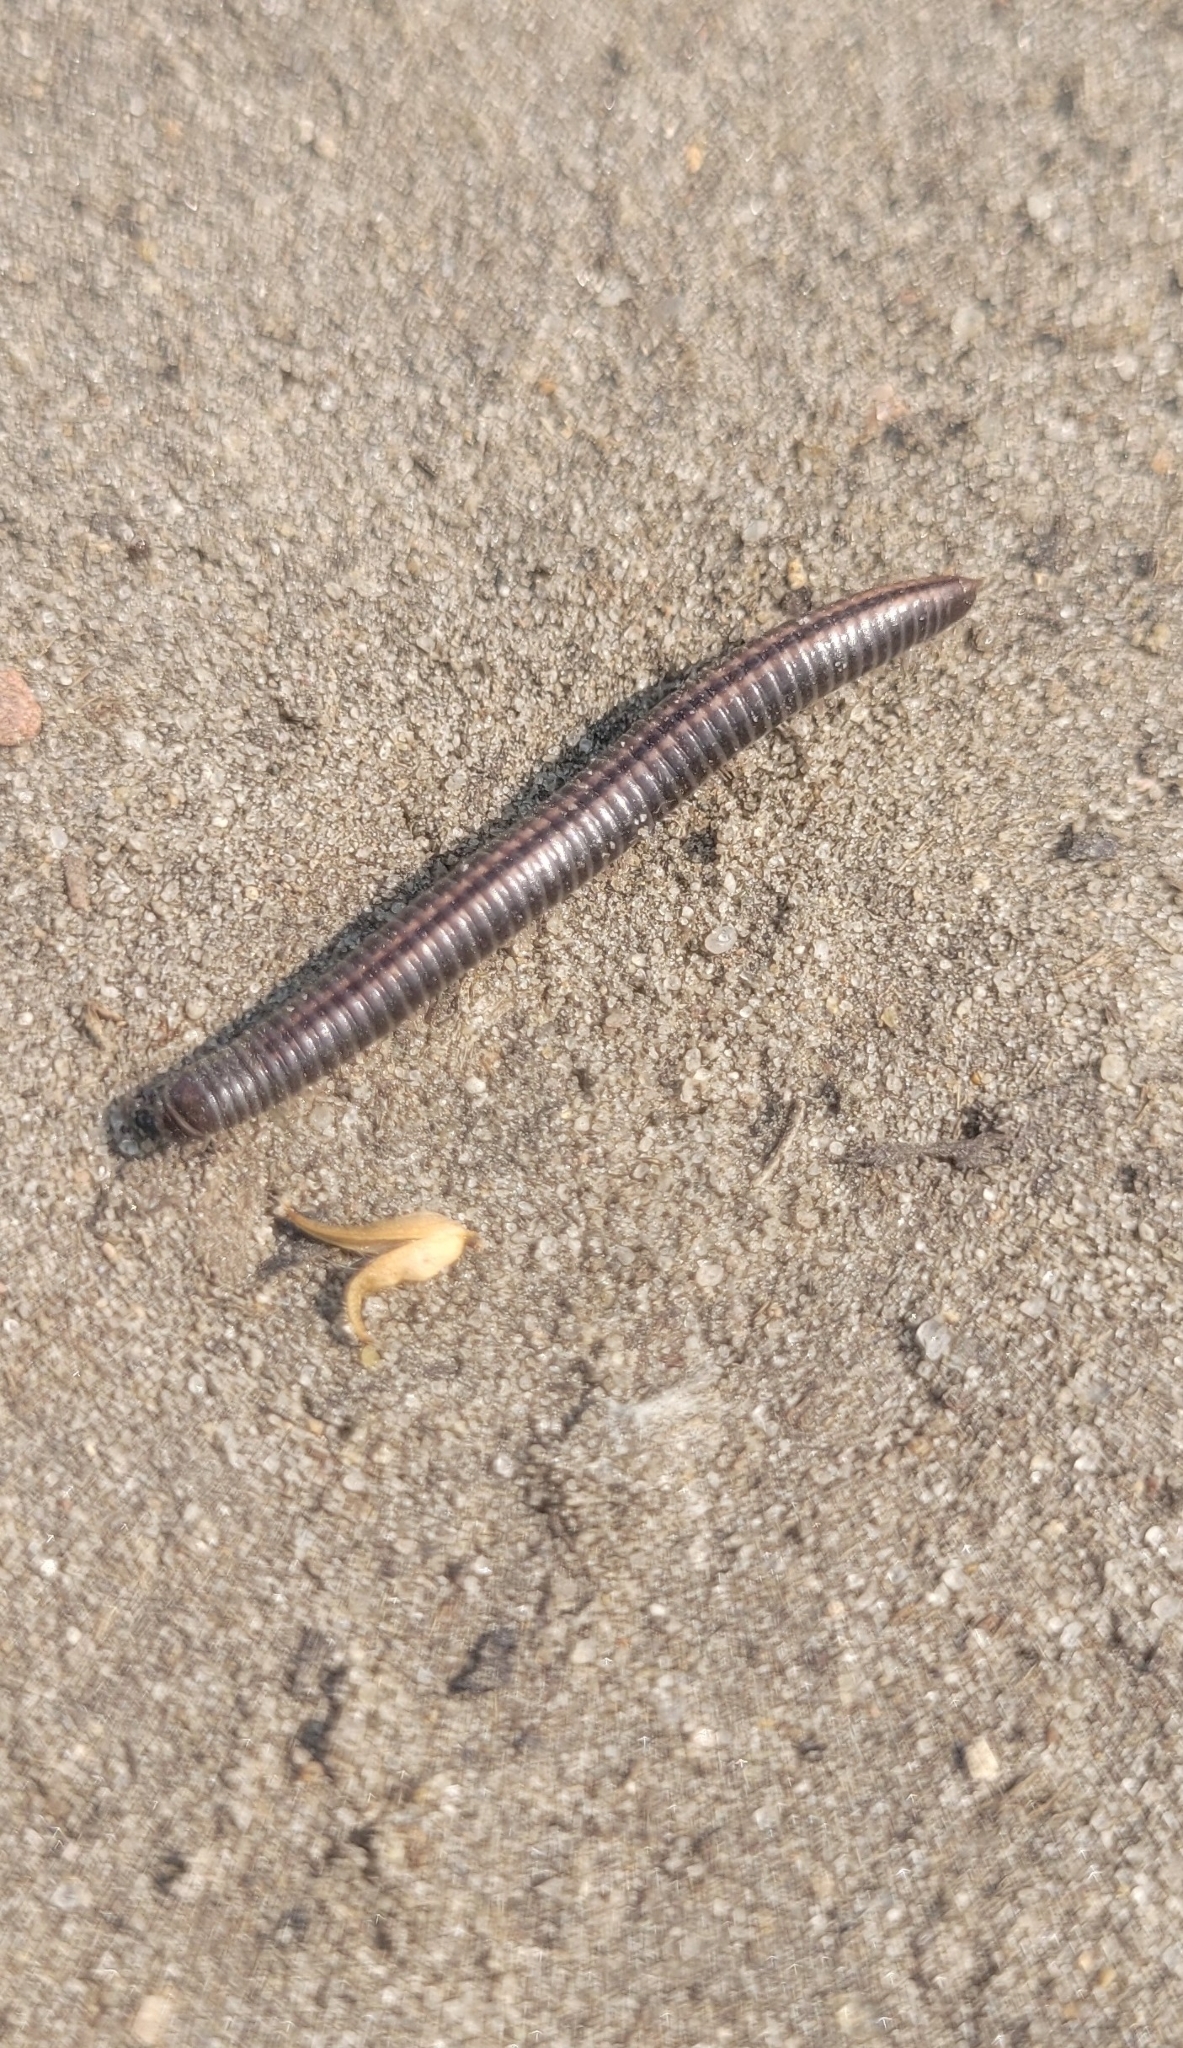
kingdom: Animalia
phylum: Arthropoda
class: Diplopoda
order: Julida
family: Julidae
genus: Ommatoiulus
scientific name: Ommatoiulus sabulosus
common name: Striped millipede
